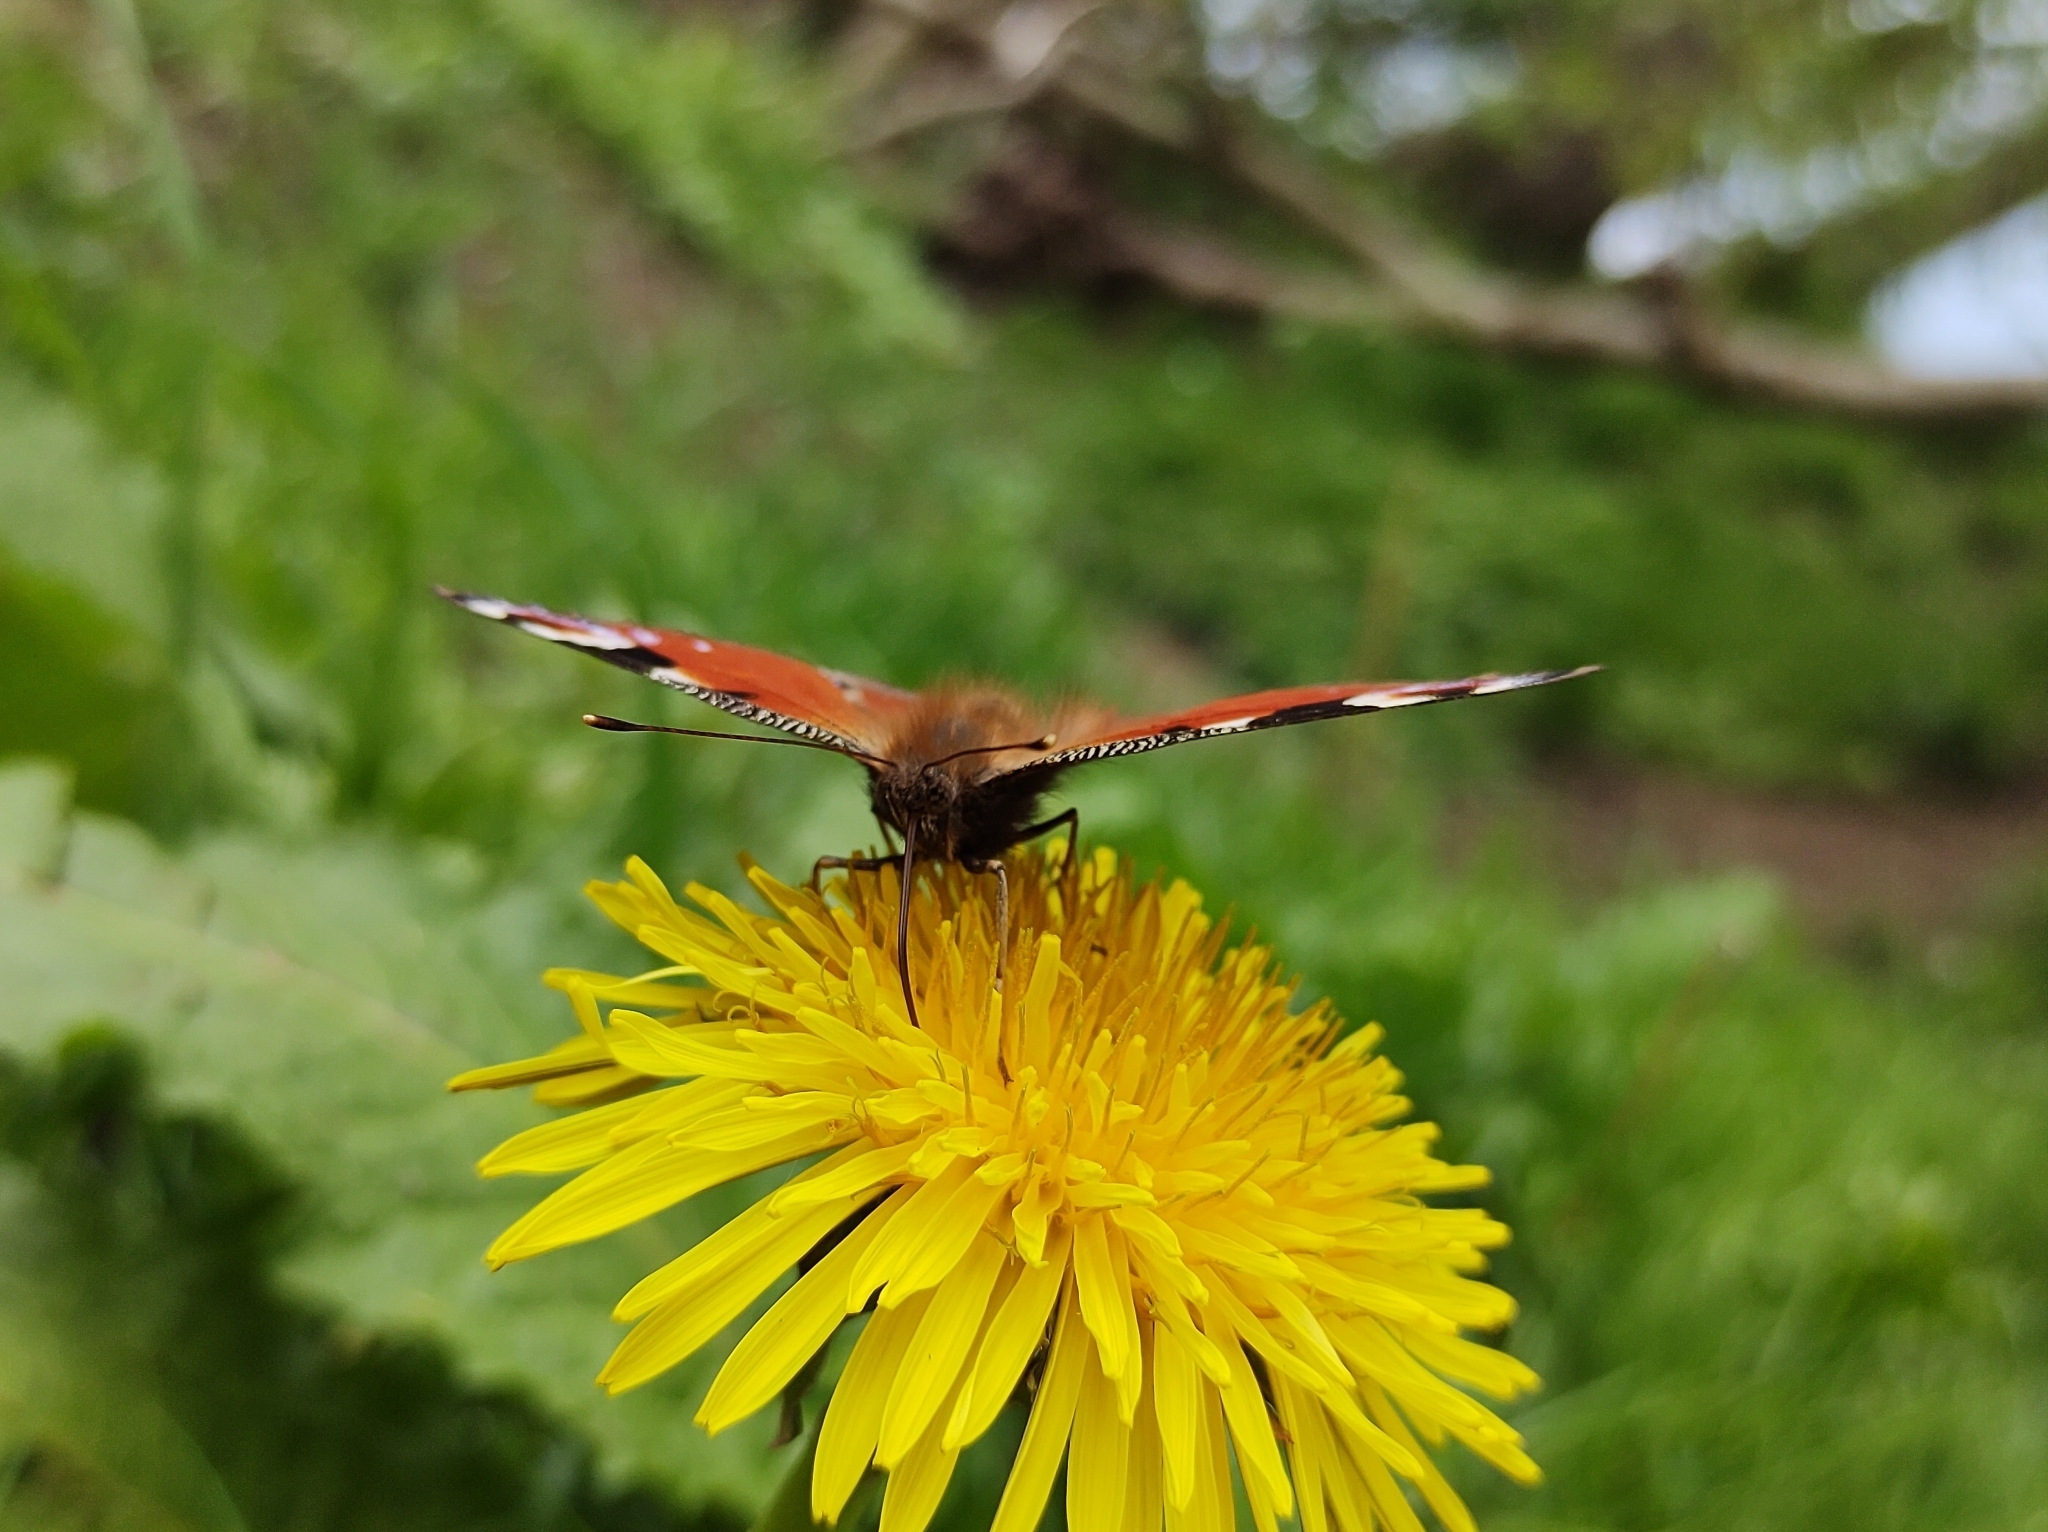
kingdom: Animalia
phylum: Arthropoda
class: Insecta
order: Lepidoptera
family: Nymphalidae
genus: Aglais
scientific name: Aglais io
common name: Peacock
